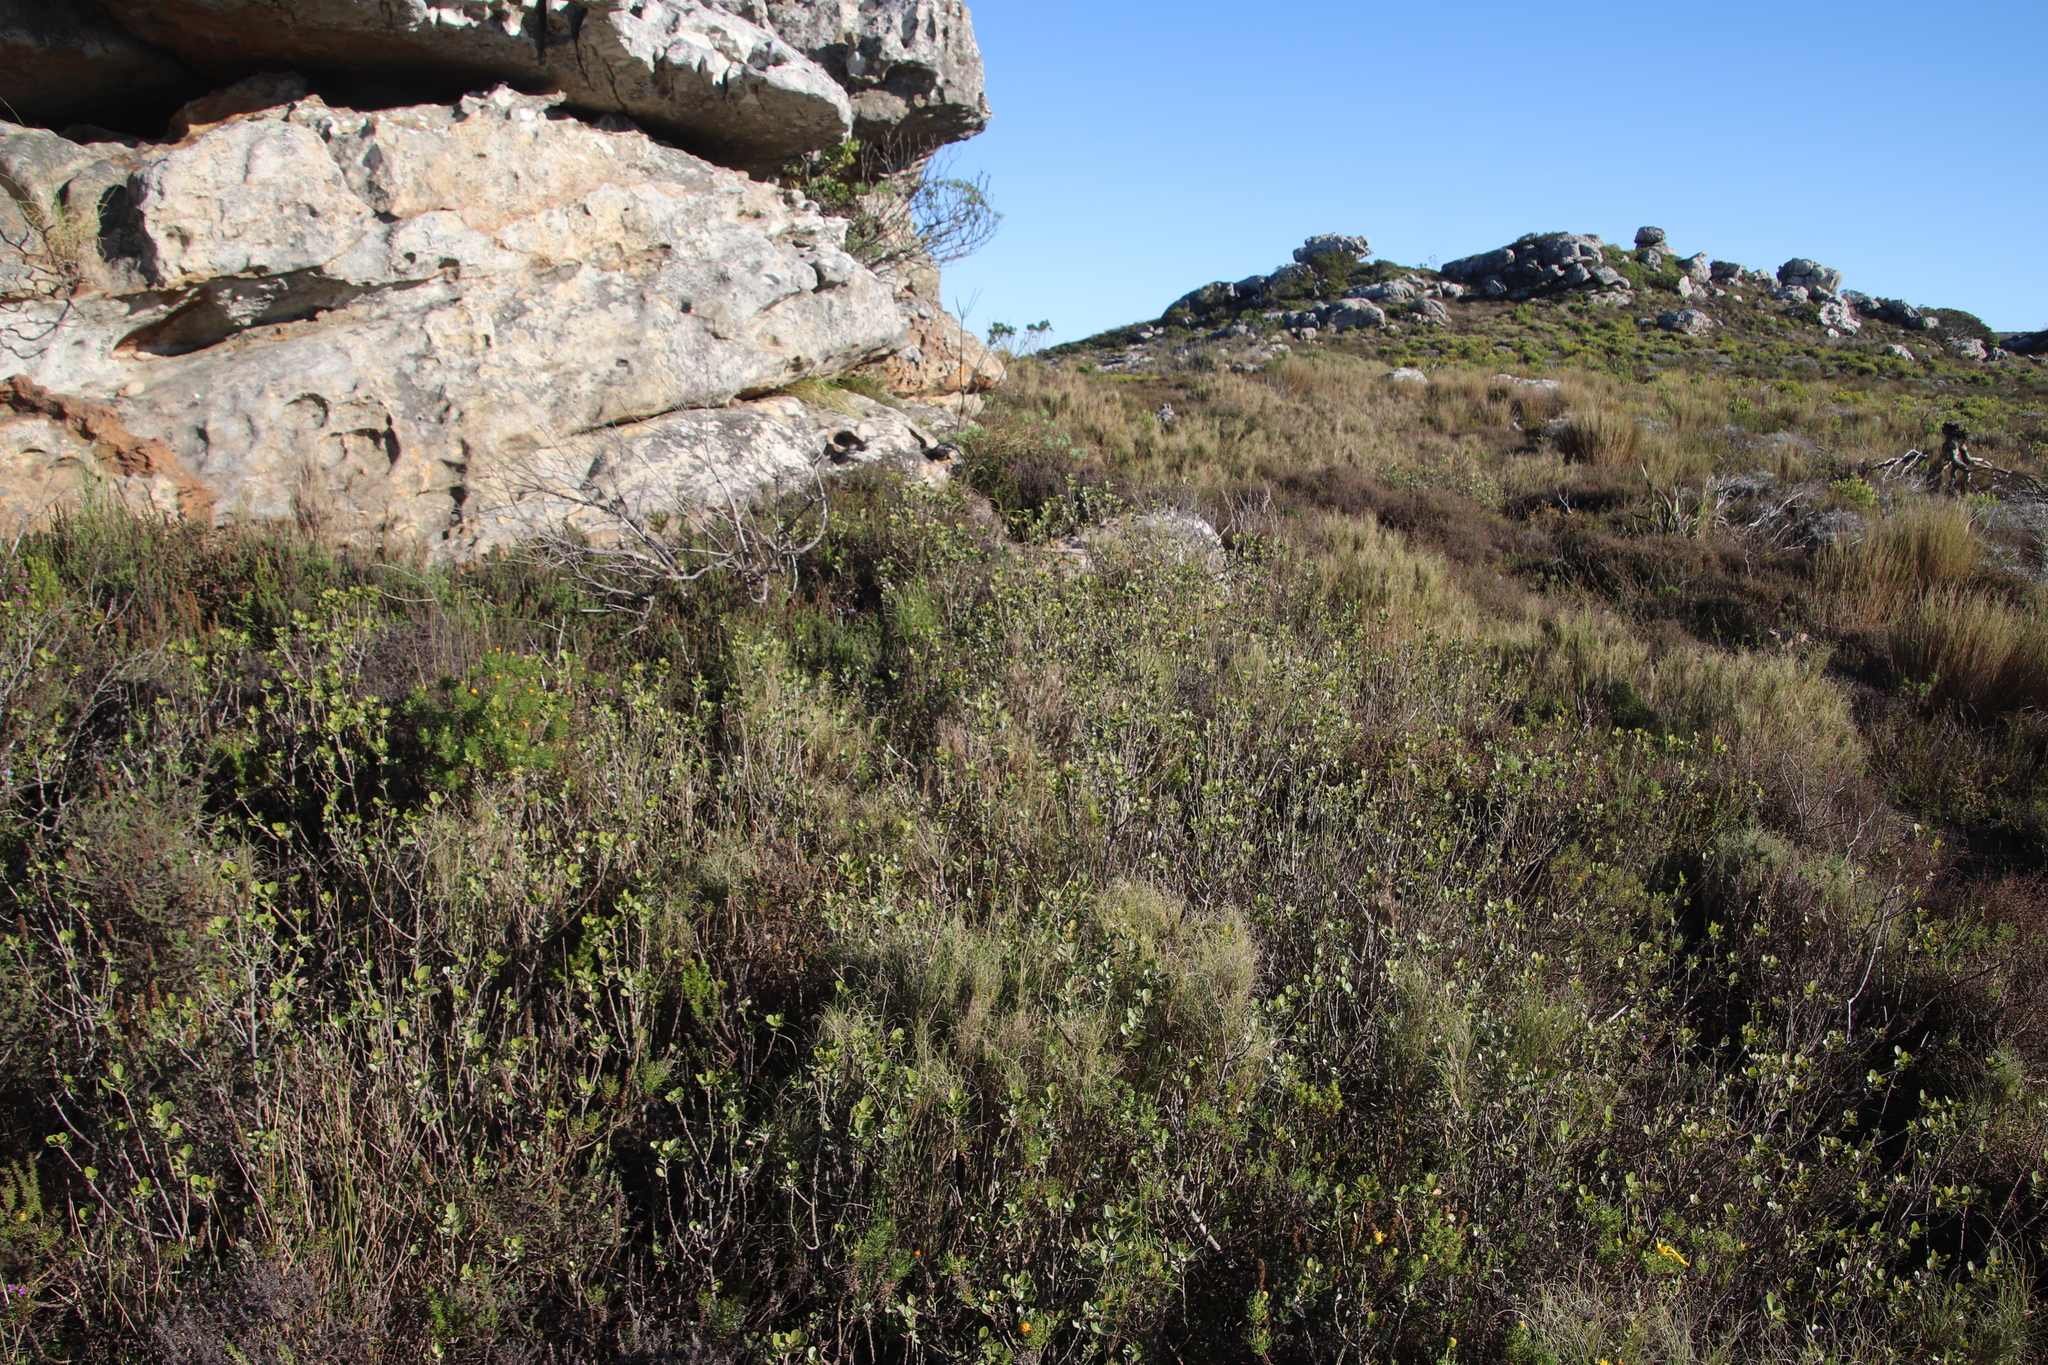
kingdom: Plantae
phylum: Tracheophyta
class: Liliopsida
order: Poales
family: Poaceae
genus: Pseudopentameris
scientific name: Pseudopentameris macrantha
